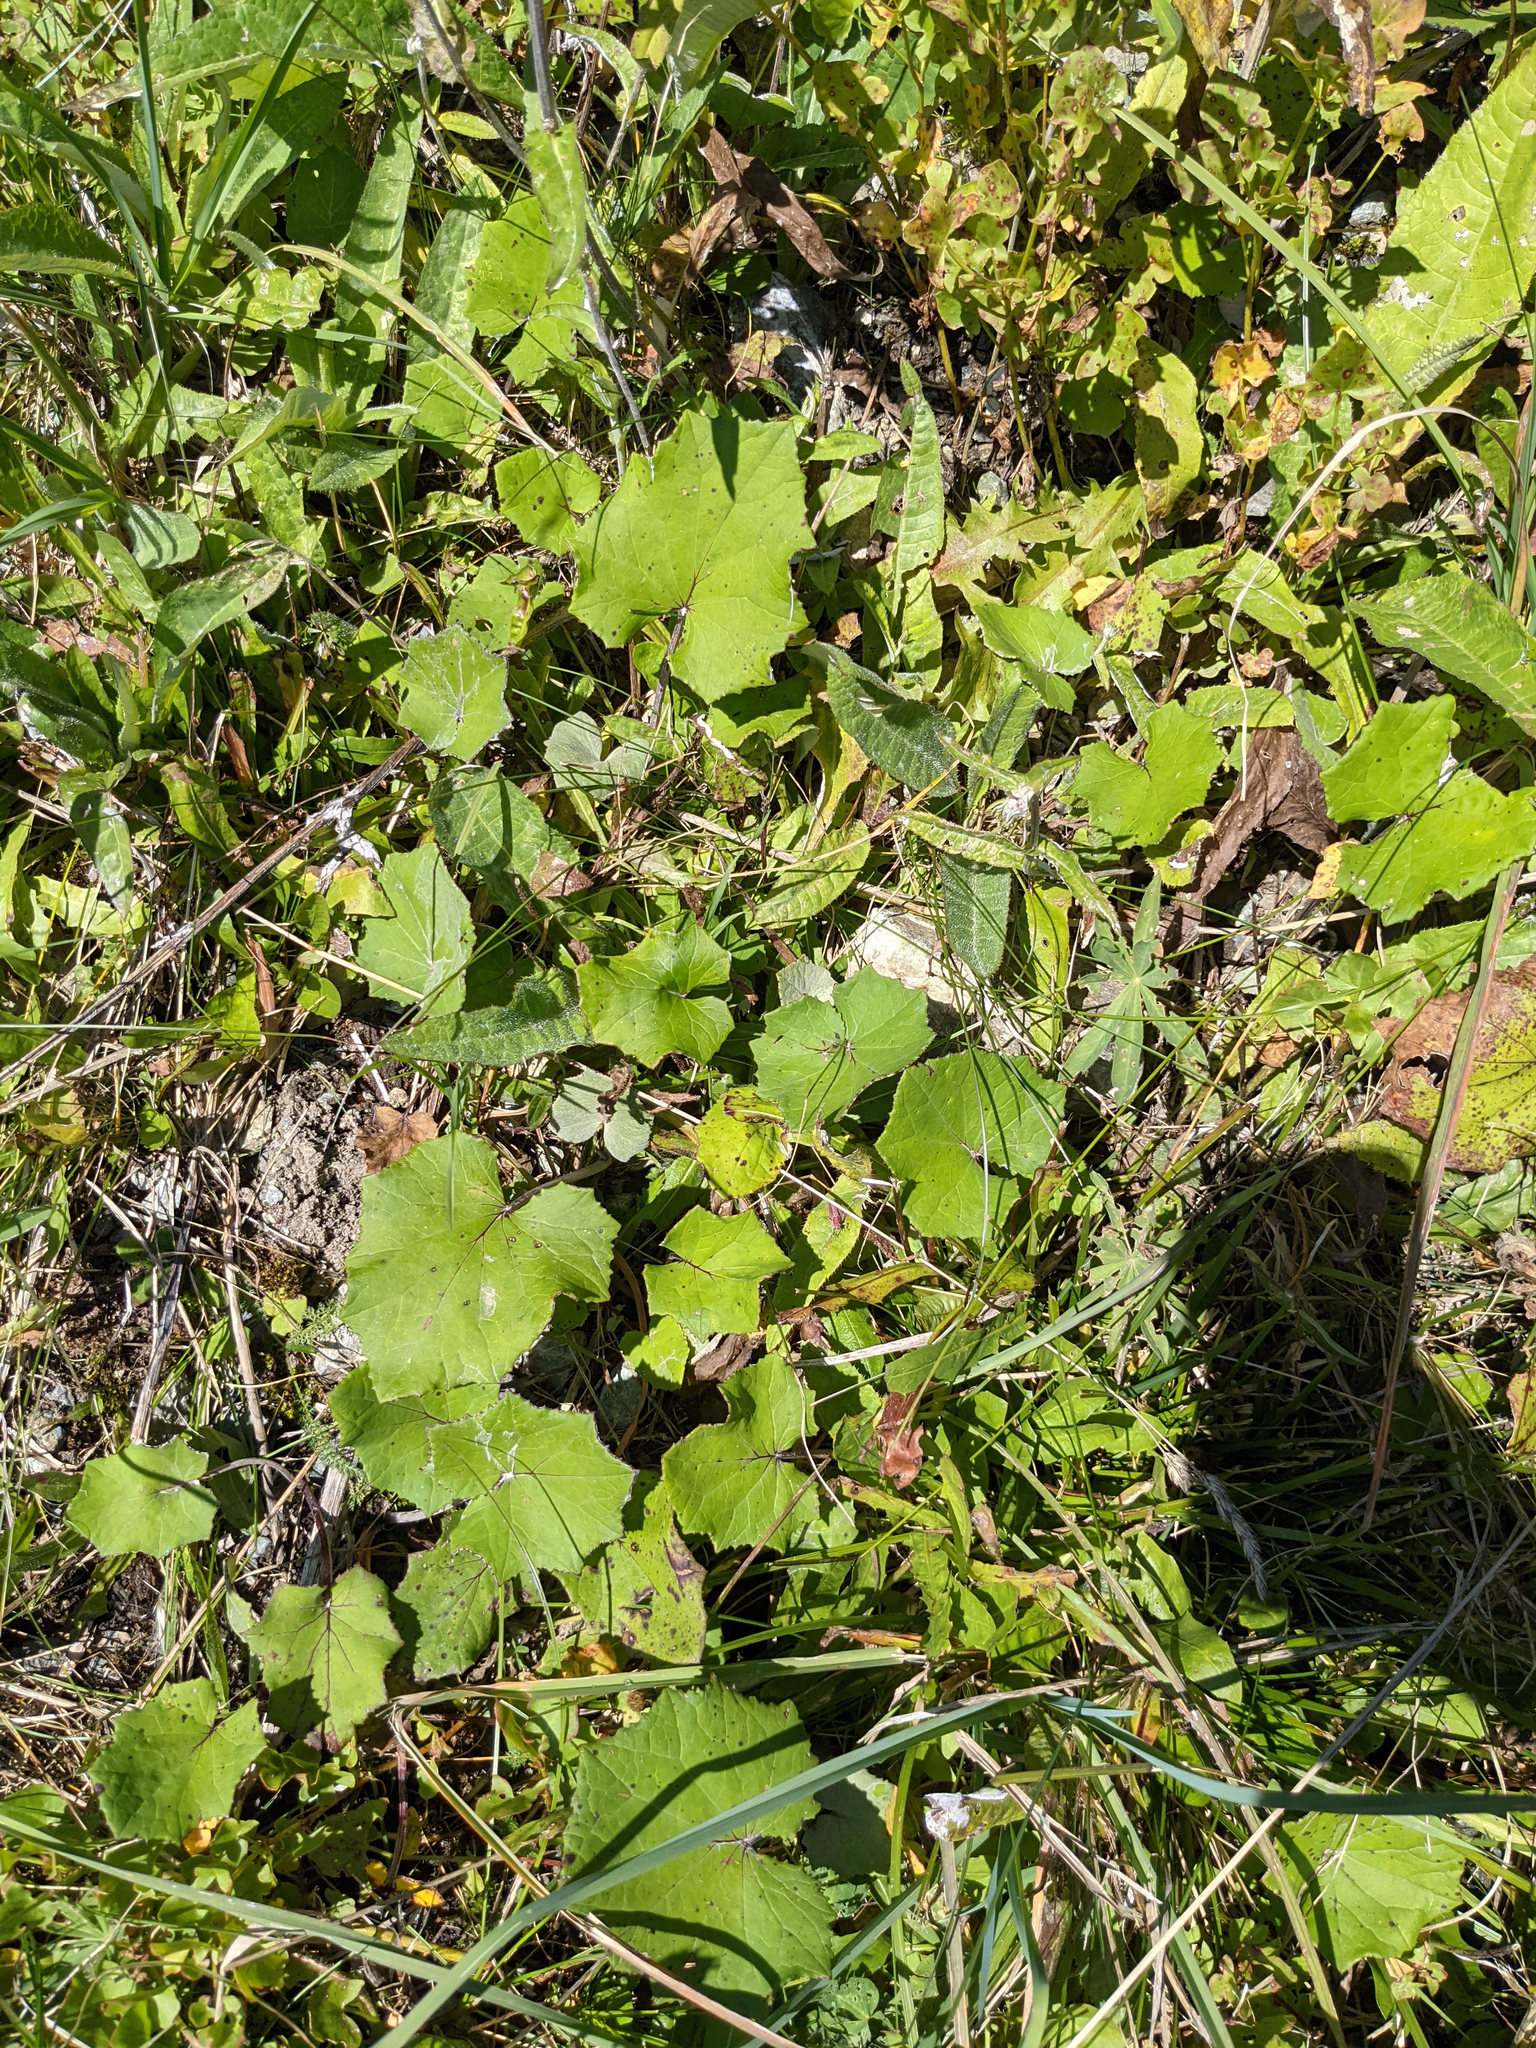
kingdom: Plantae
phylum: Tracheophyta
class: Magnoliopsida
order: Asterales
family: Asteraceae
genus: Tussilago
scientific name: Tussilago farfara
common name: Coltsfoot
